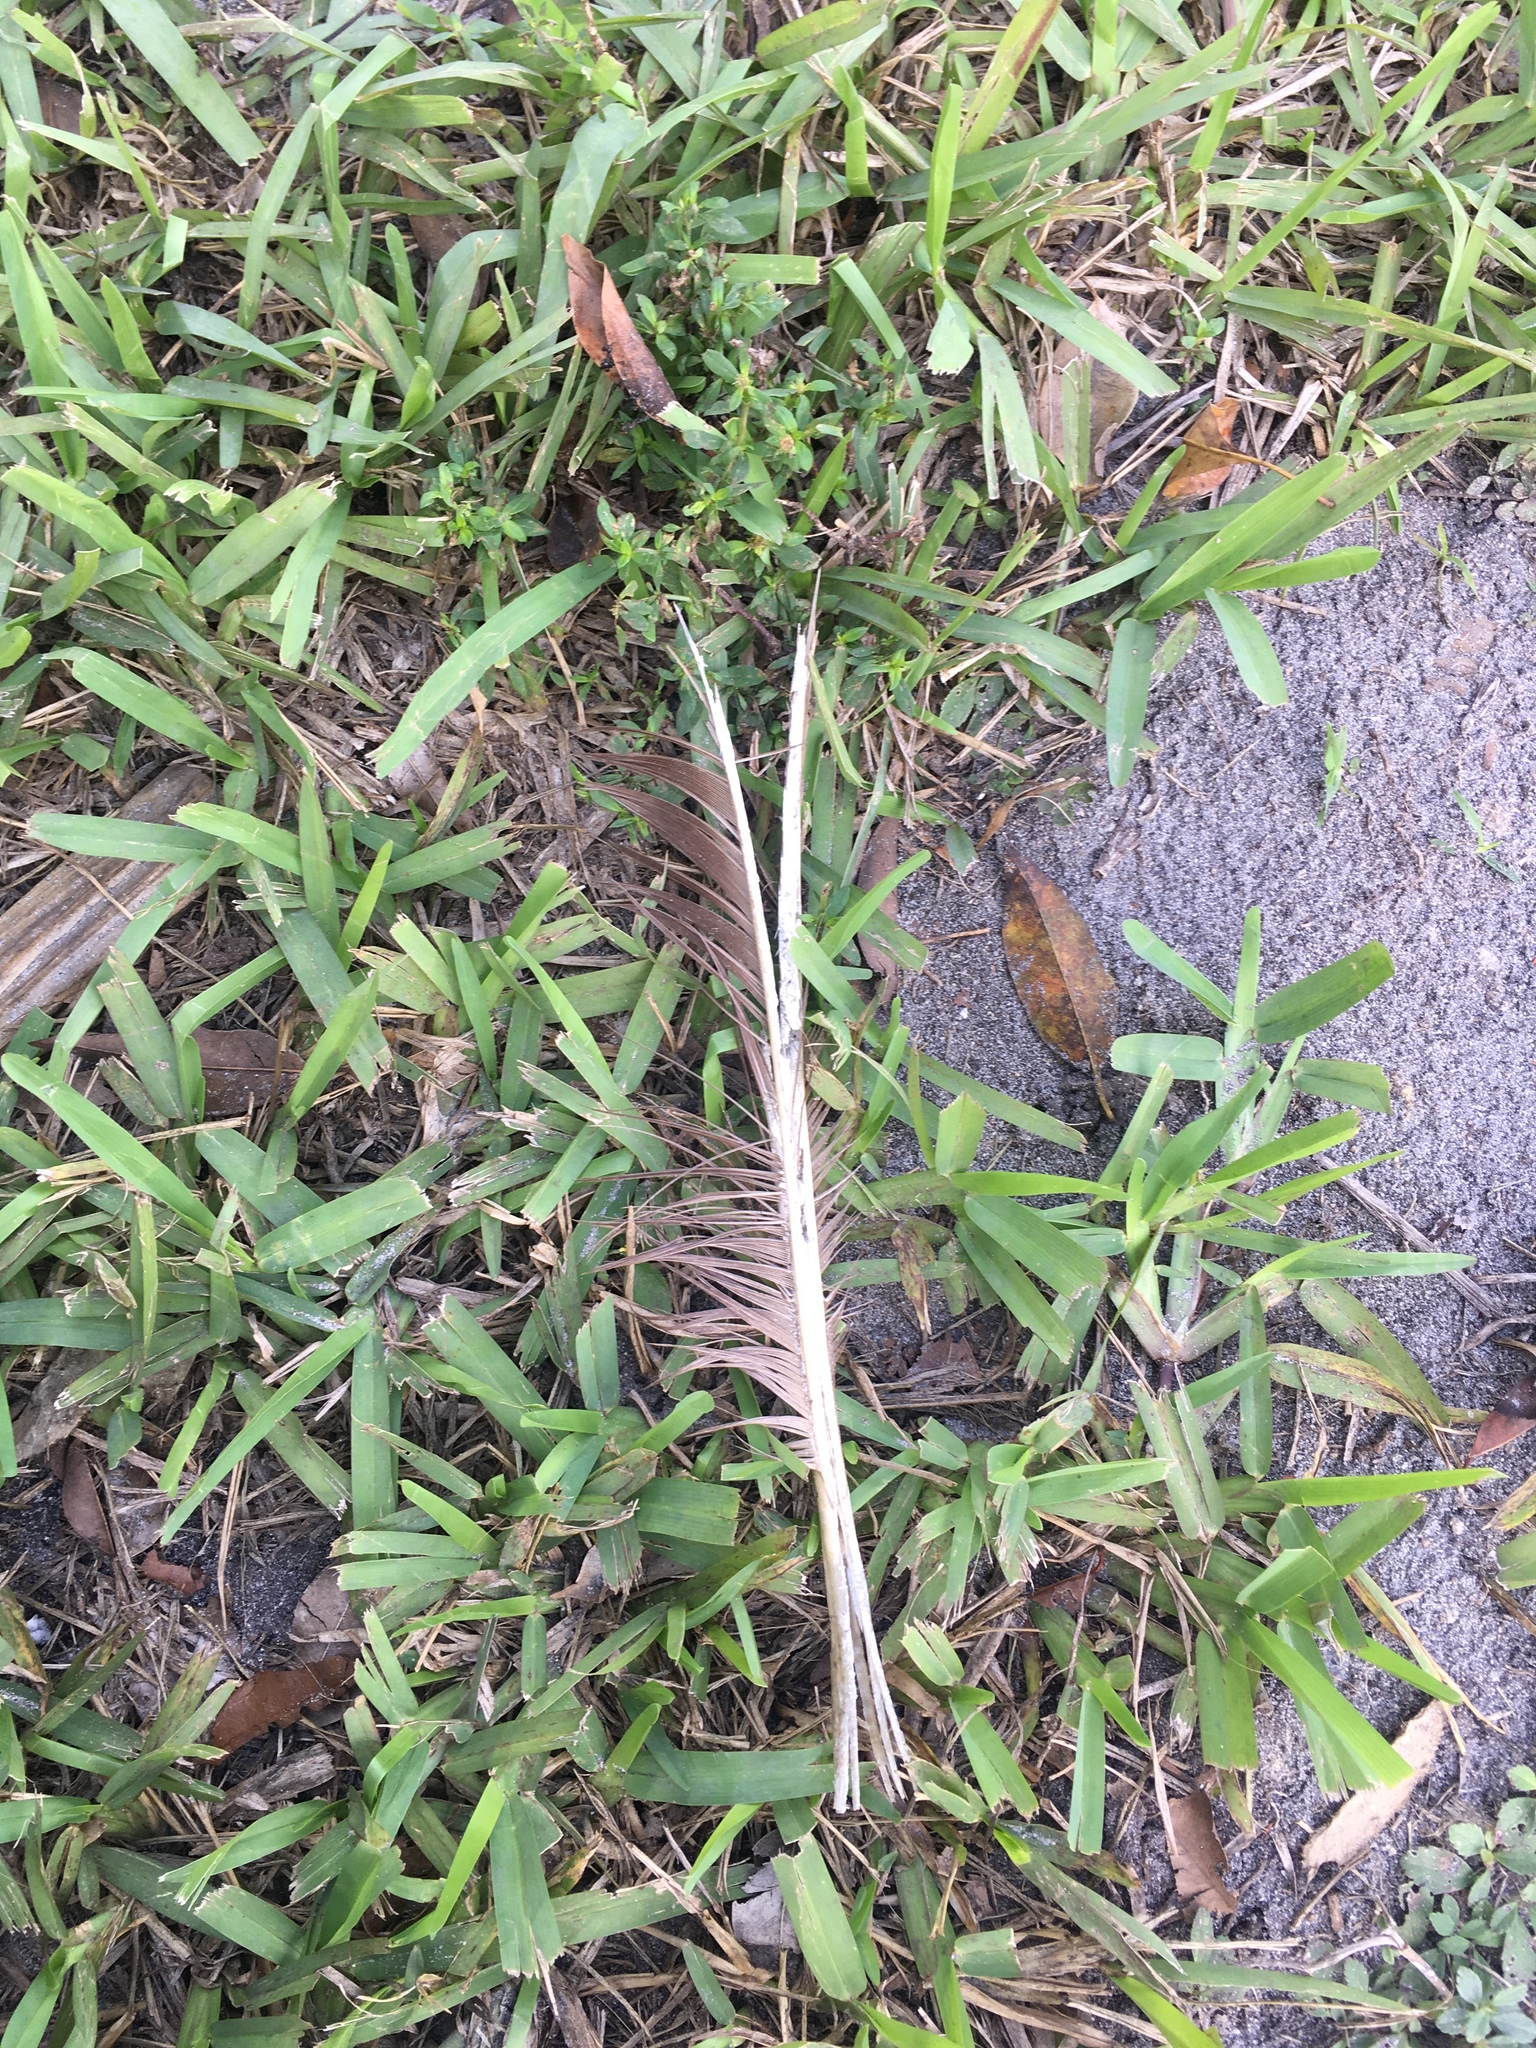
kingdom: Animalia
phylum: Chordata
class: Aves
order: Galliformes
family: Phasianidae
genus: Pavo
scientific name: Pavo cristatus
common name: Indian peafowl
